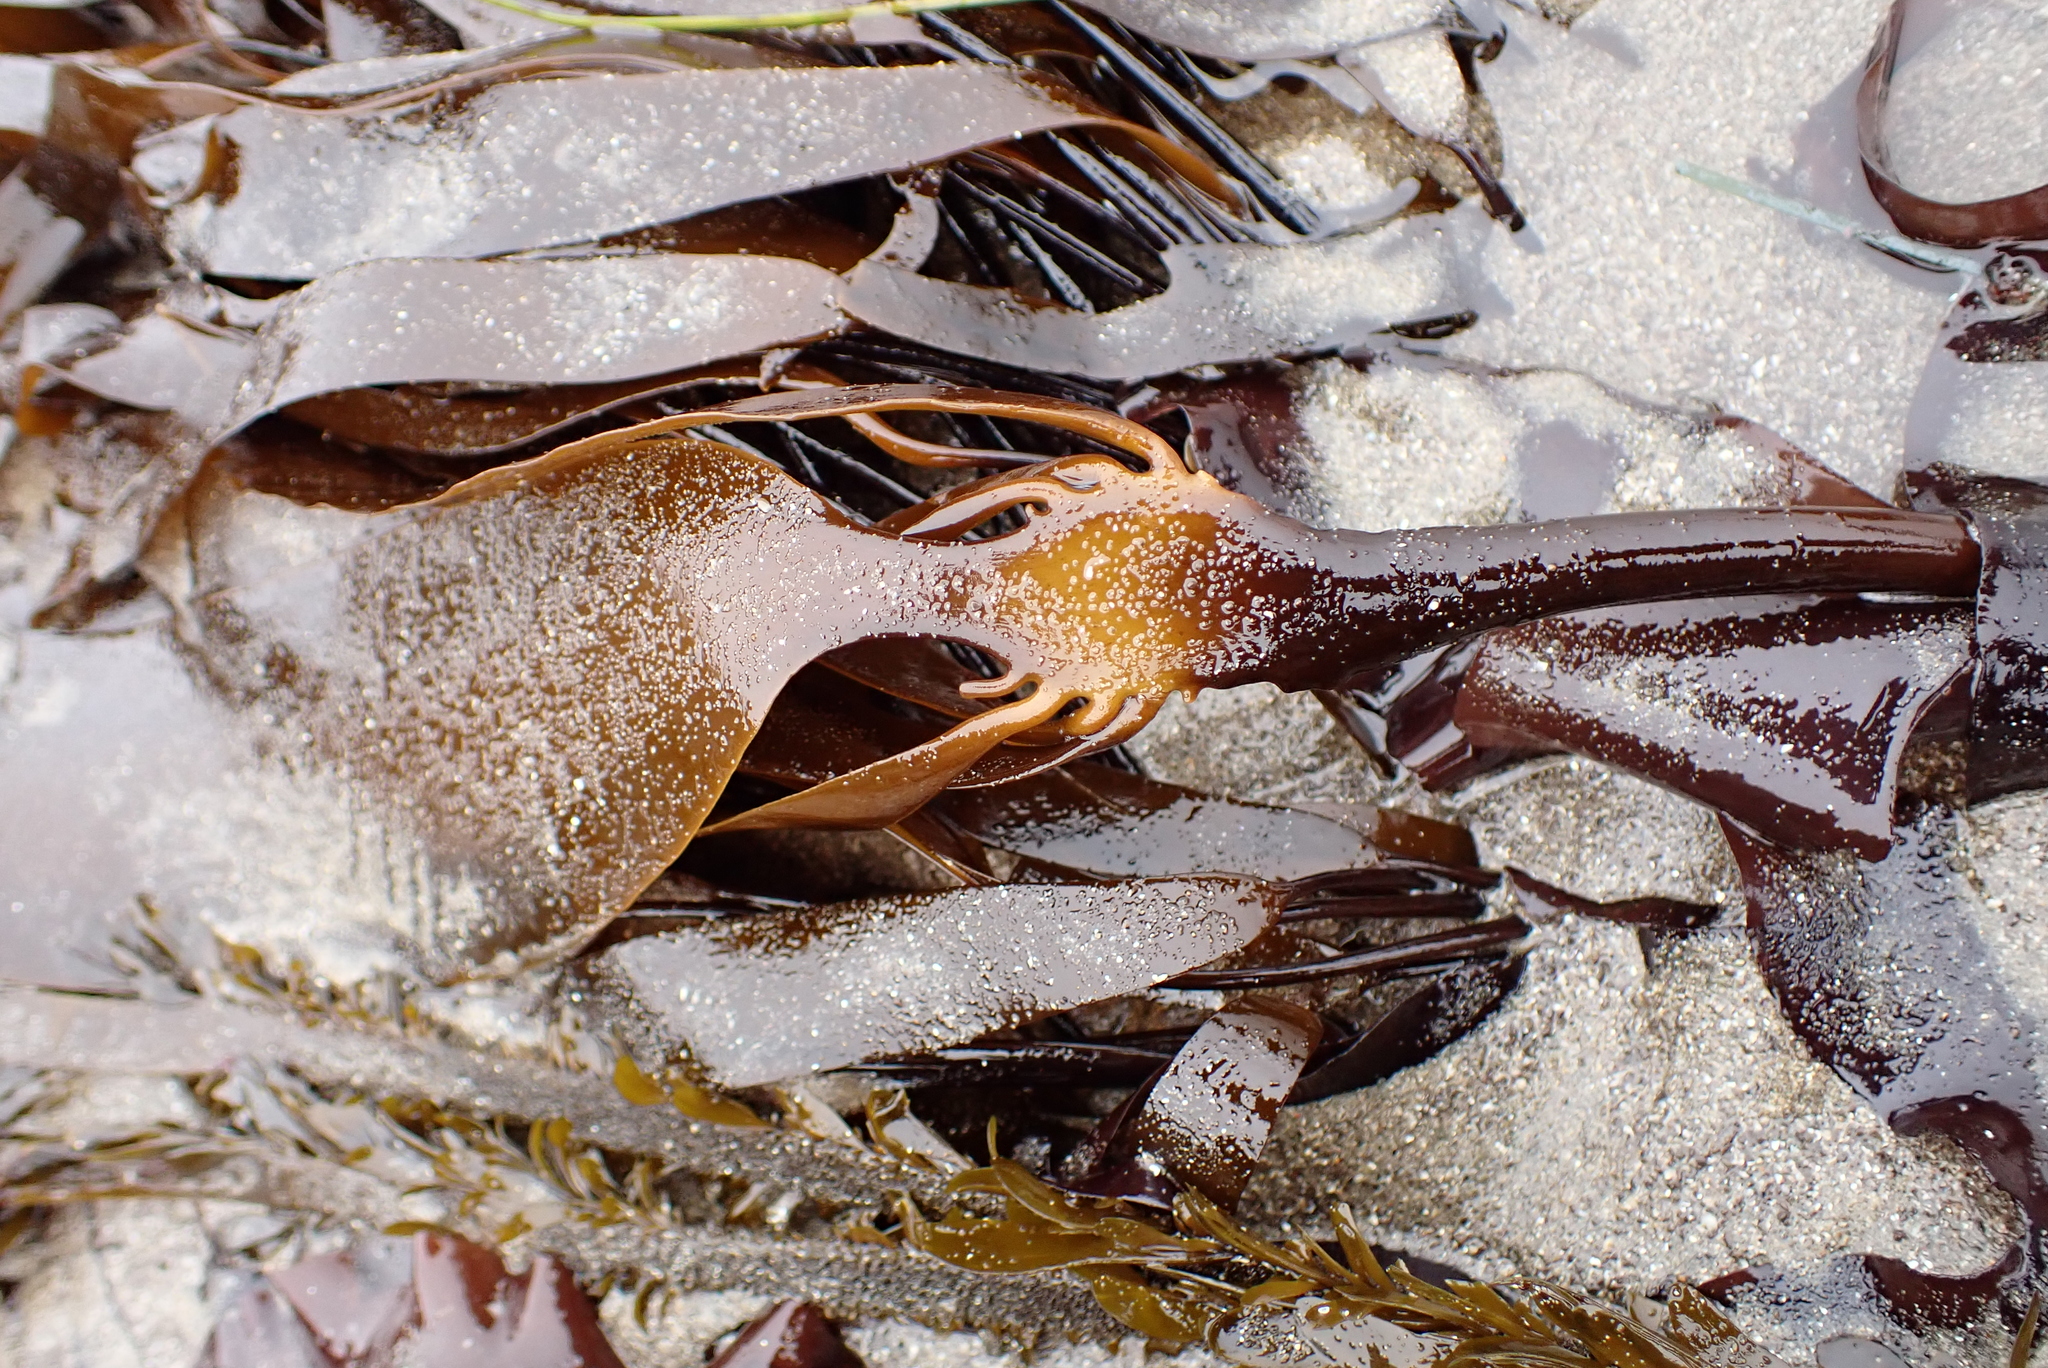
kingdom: Chromista
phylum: Ochrophyta
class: Phaeophyceae
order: Laminariales
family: Alariaceae
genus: Pterygophora
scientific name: Pterygophora californica
